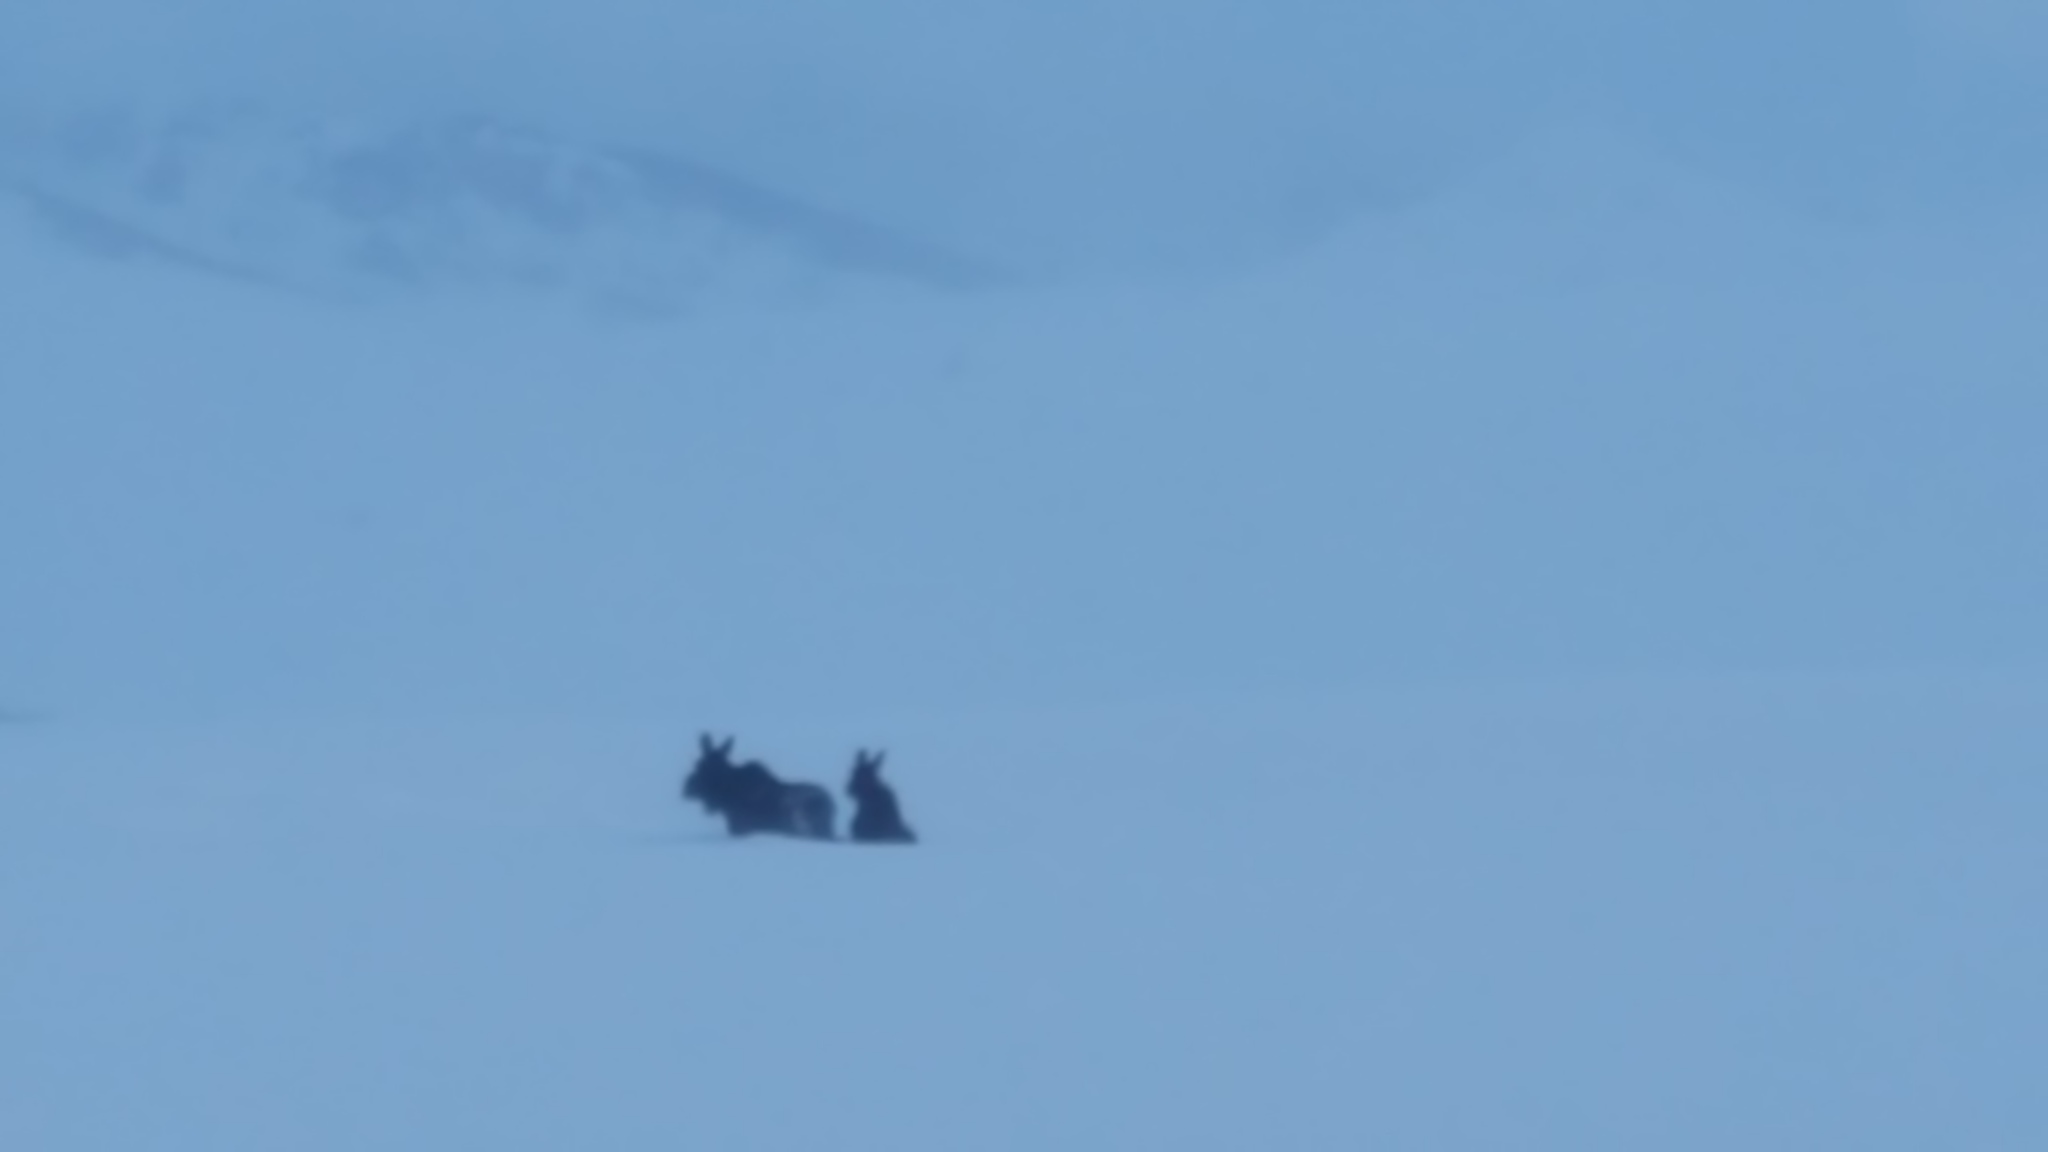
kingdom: Animalia
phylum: Chordata
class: Mammalia
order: Artiodactyla
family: Cervidae
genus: Alces
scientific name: Alces alces
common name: Moose
